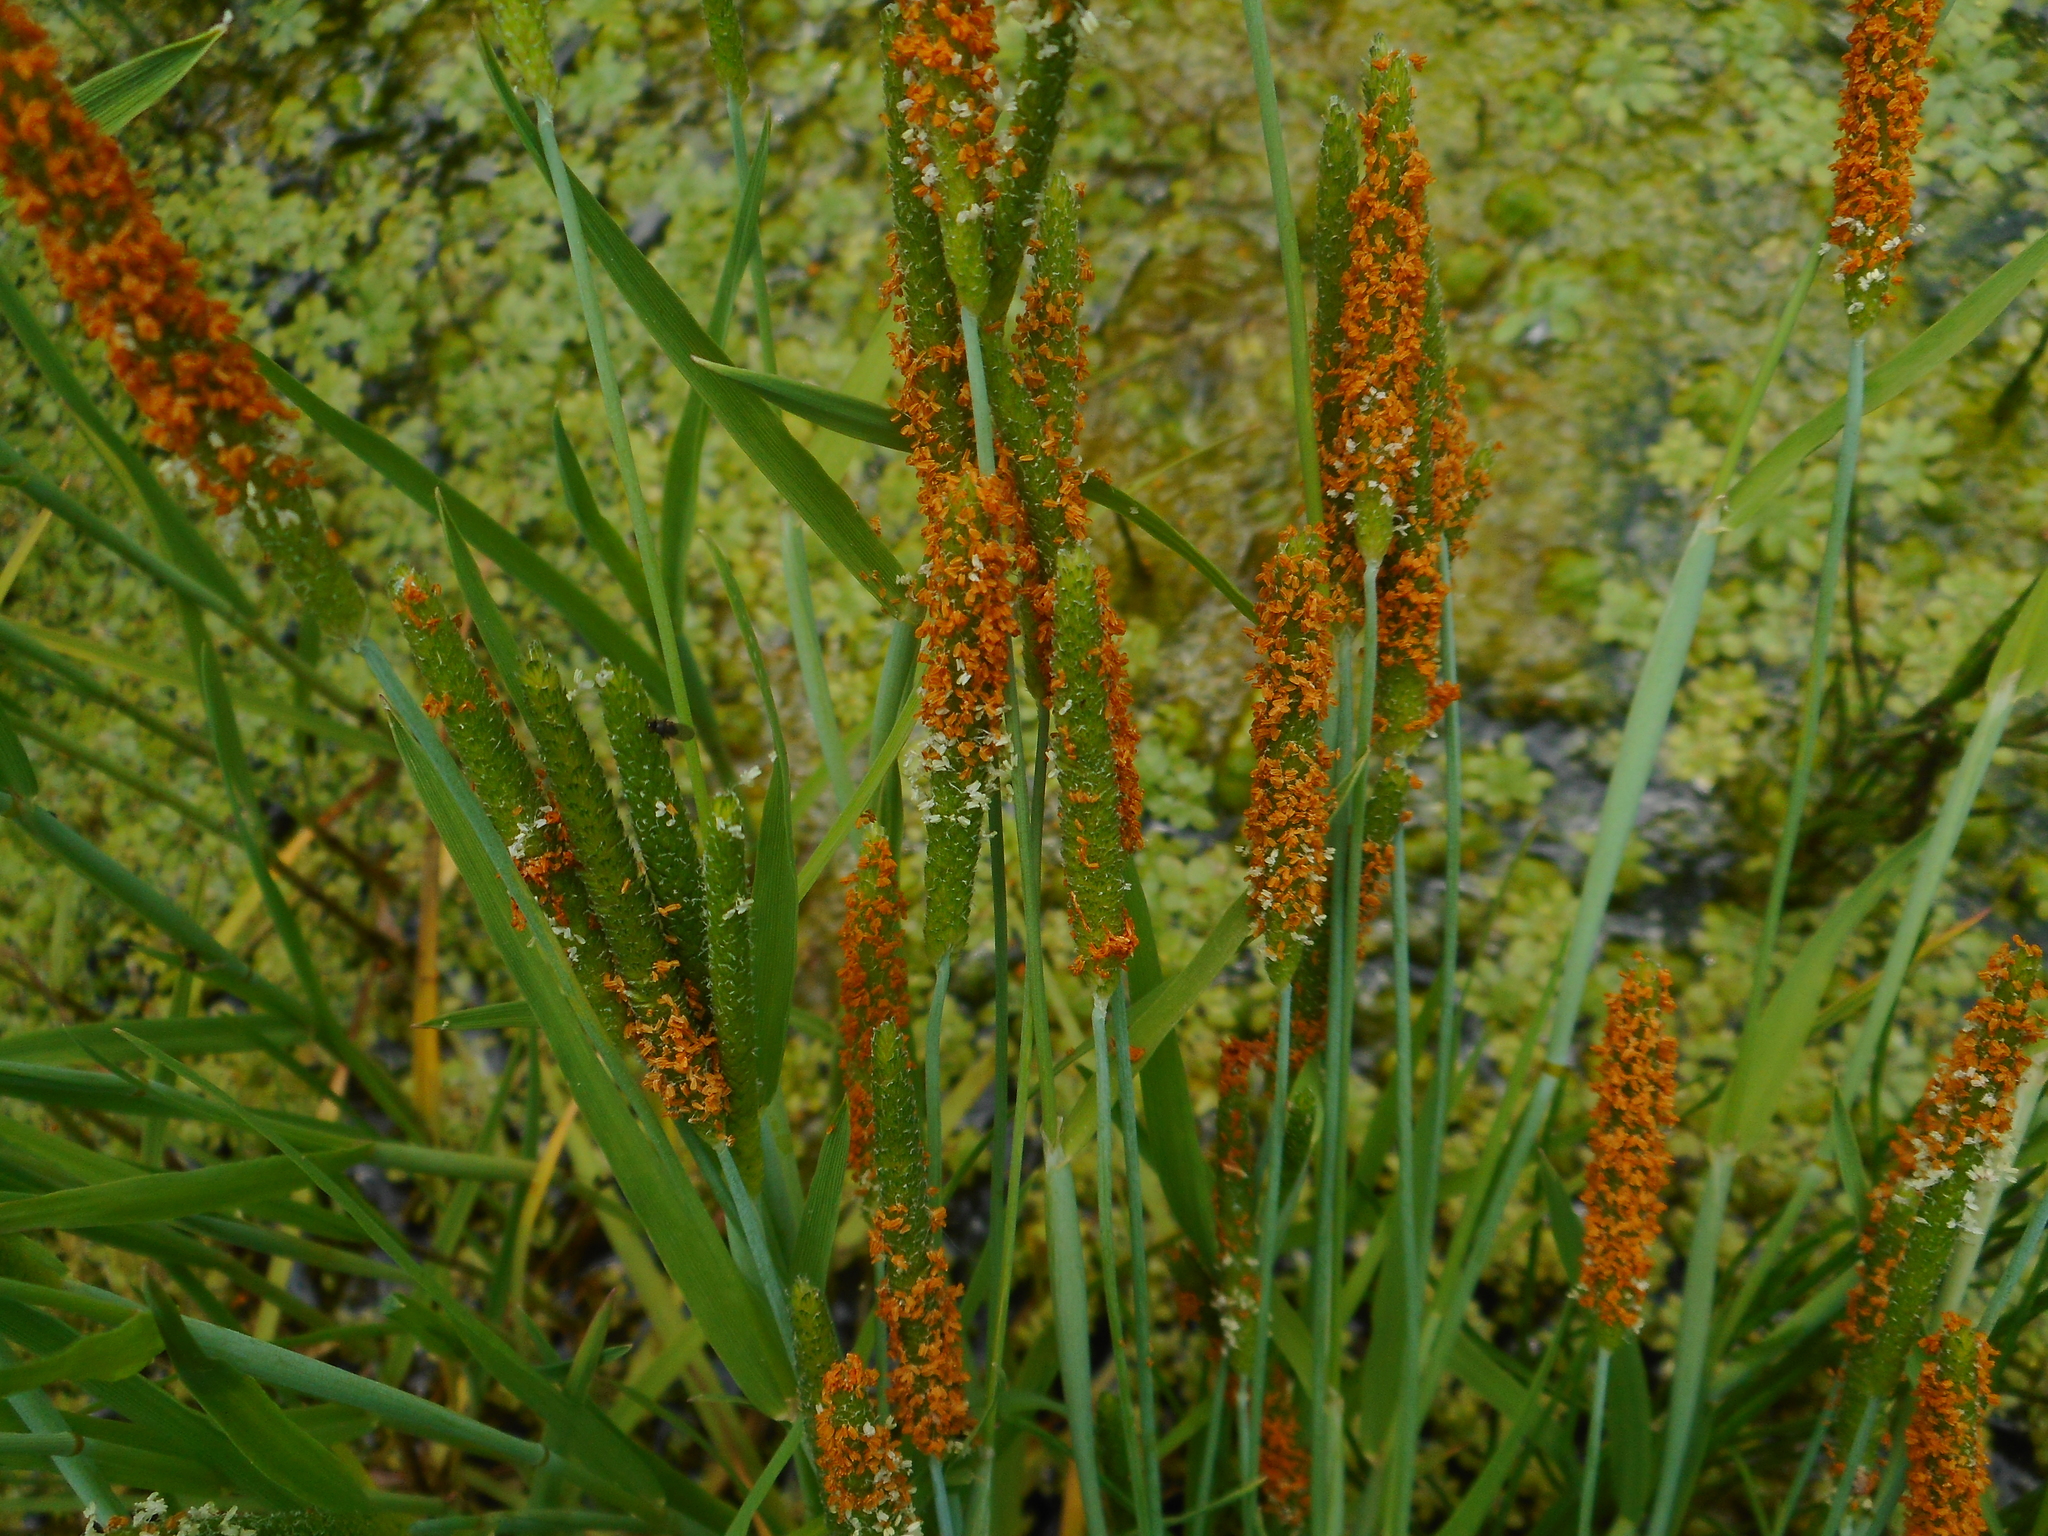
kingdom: Plantae
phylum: Tracheophyta
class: Liliopsida
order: Poales
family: Poaceae
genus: Alopecurus
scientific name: Alopecurus aequalis
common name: Orange foxtail
